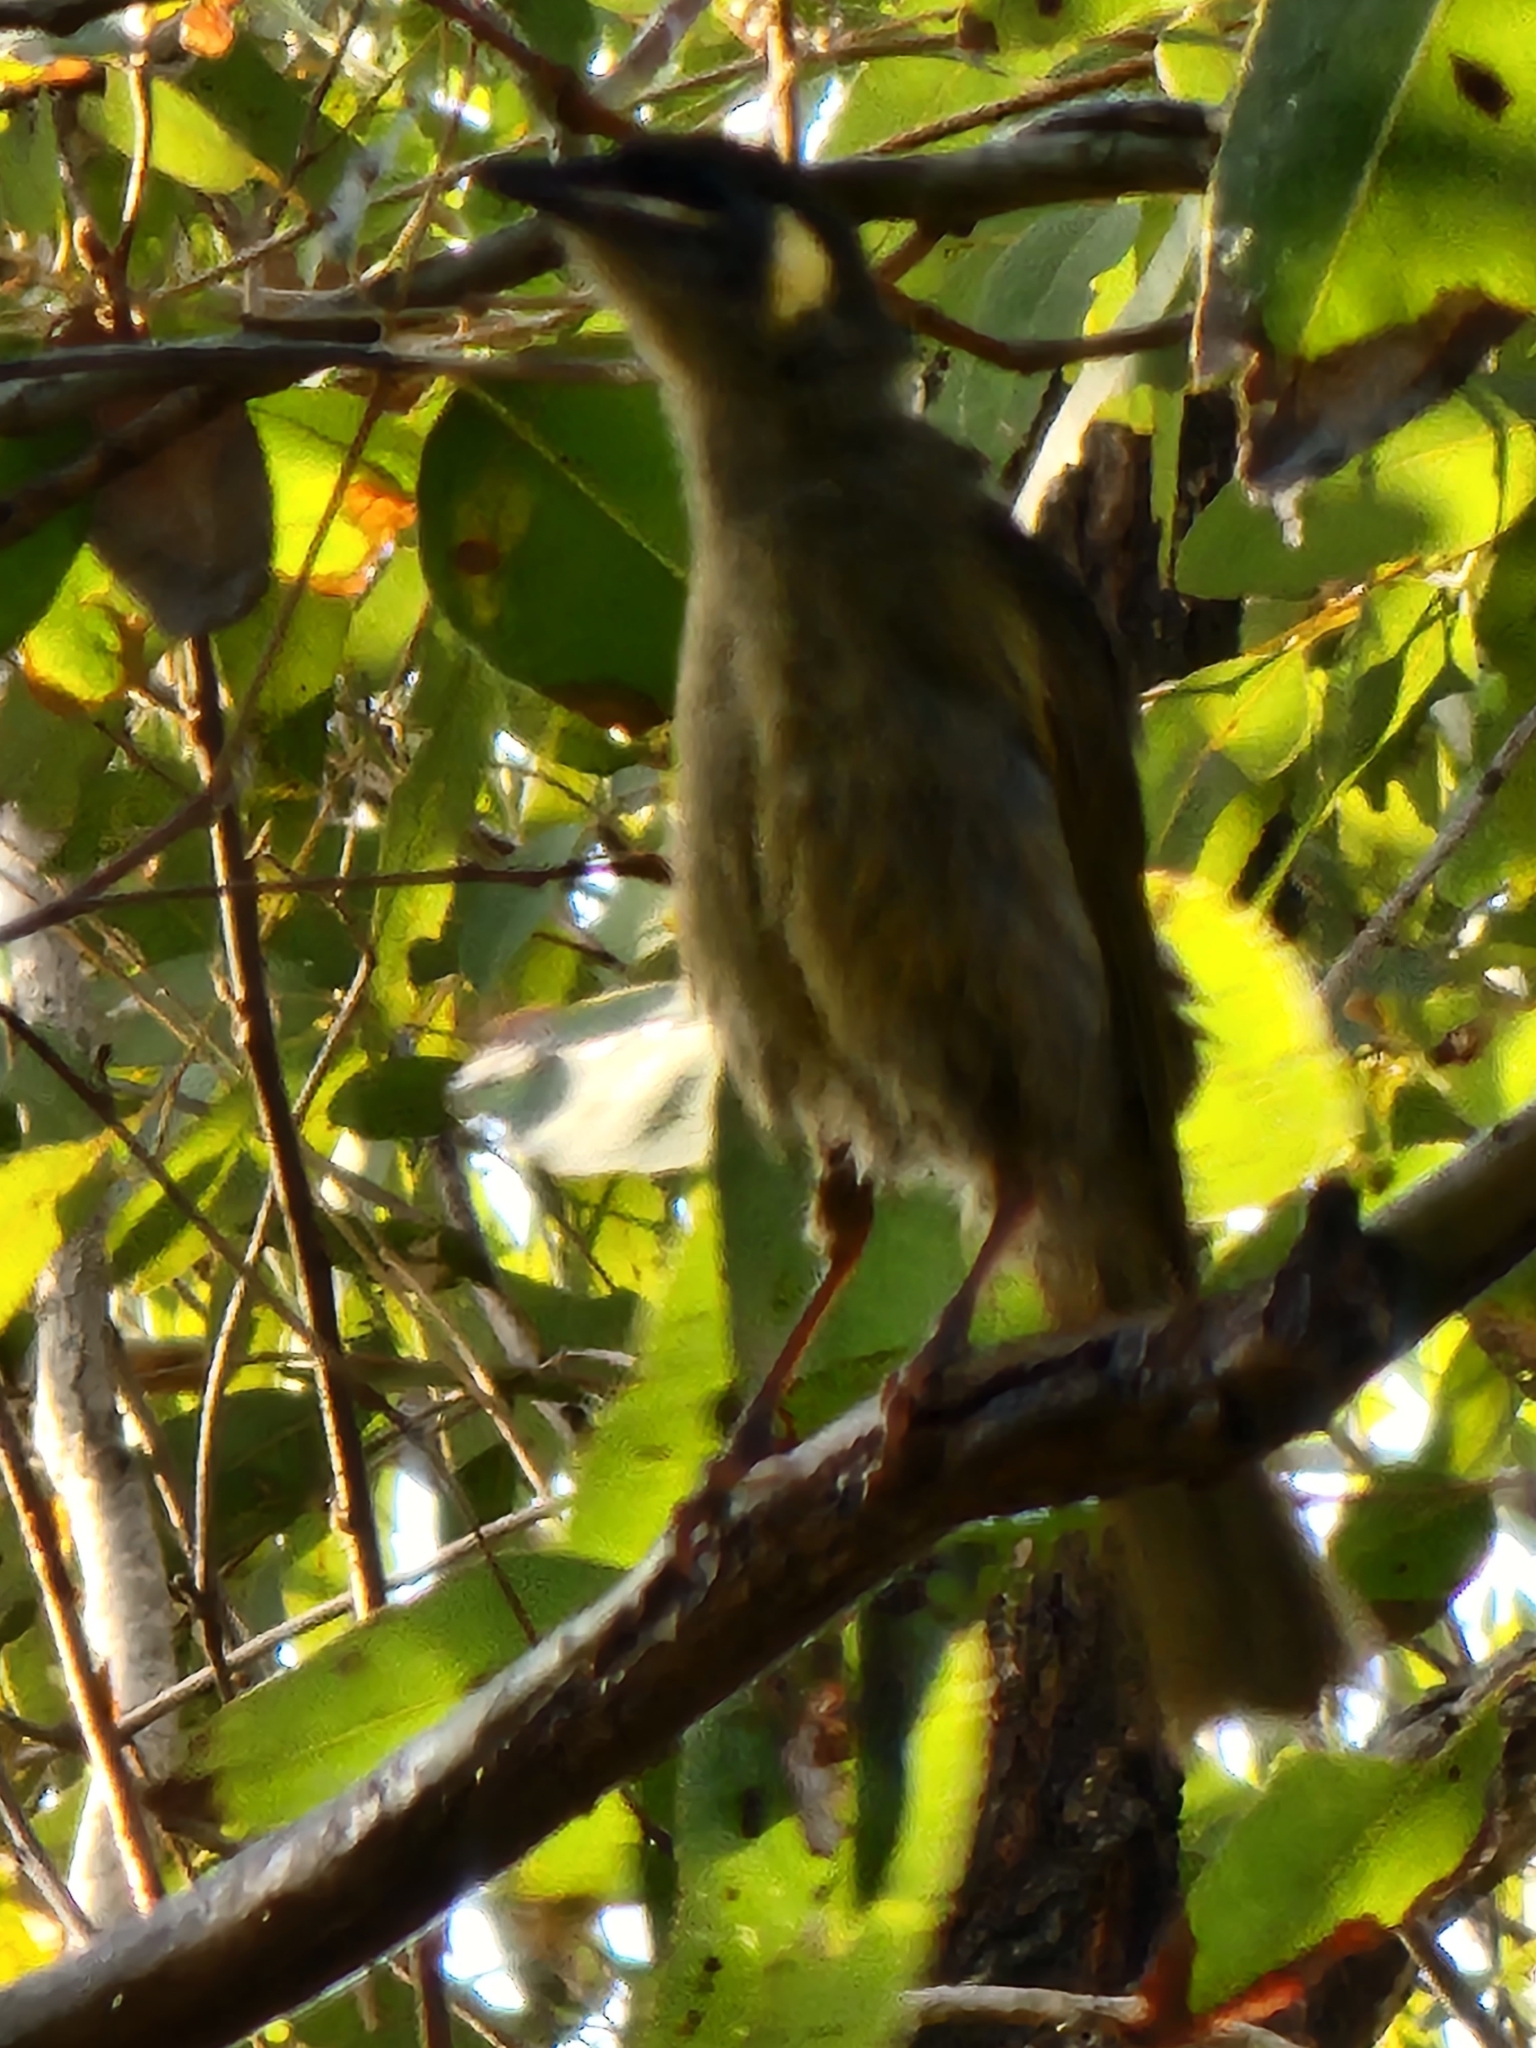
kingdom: Animalia
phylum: Chordata
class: Aves
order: Passeriformes
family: Meliphagidae
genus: Meliphaga
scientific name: Meliphaga lewinii
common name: Lewin's honeyeater
